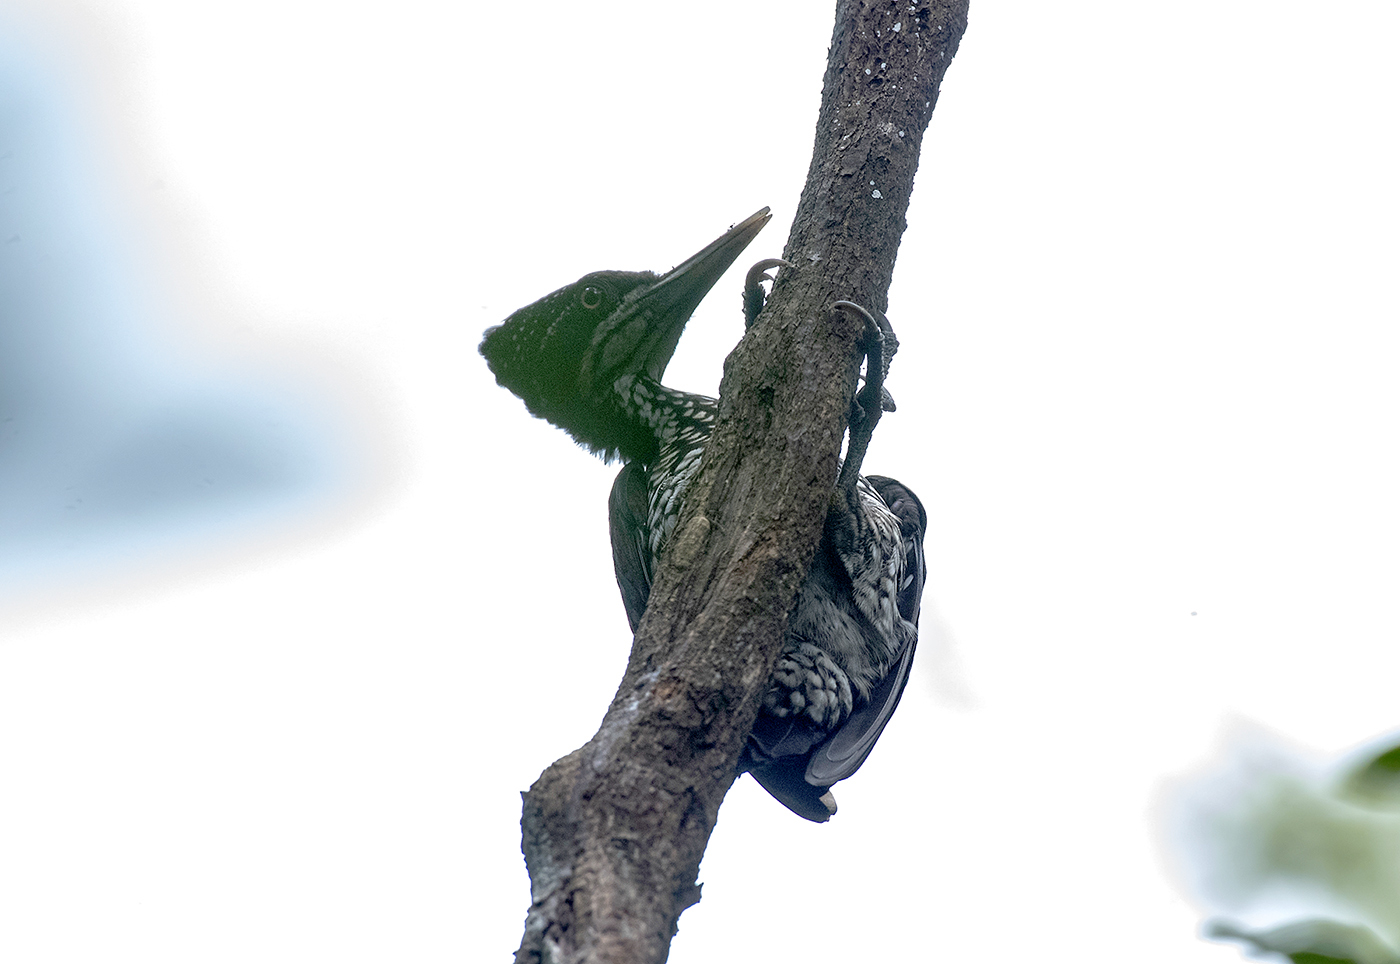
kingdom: Animalia
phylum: Chordata
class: Aves
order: Piciformes
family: Picidae
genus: Chrysocolaptes
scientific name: Chrysocolaptes stricklandi
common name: Crimson-backed flameback
